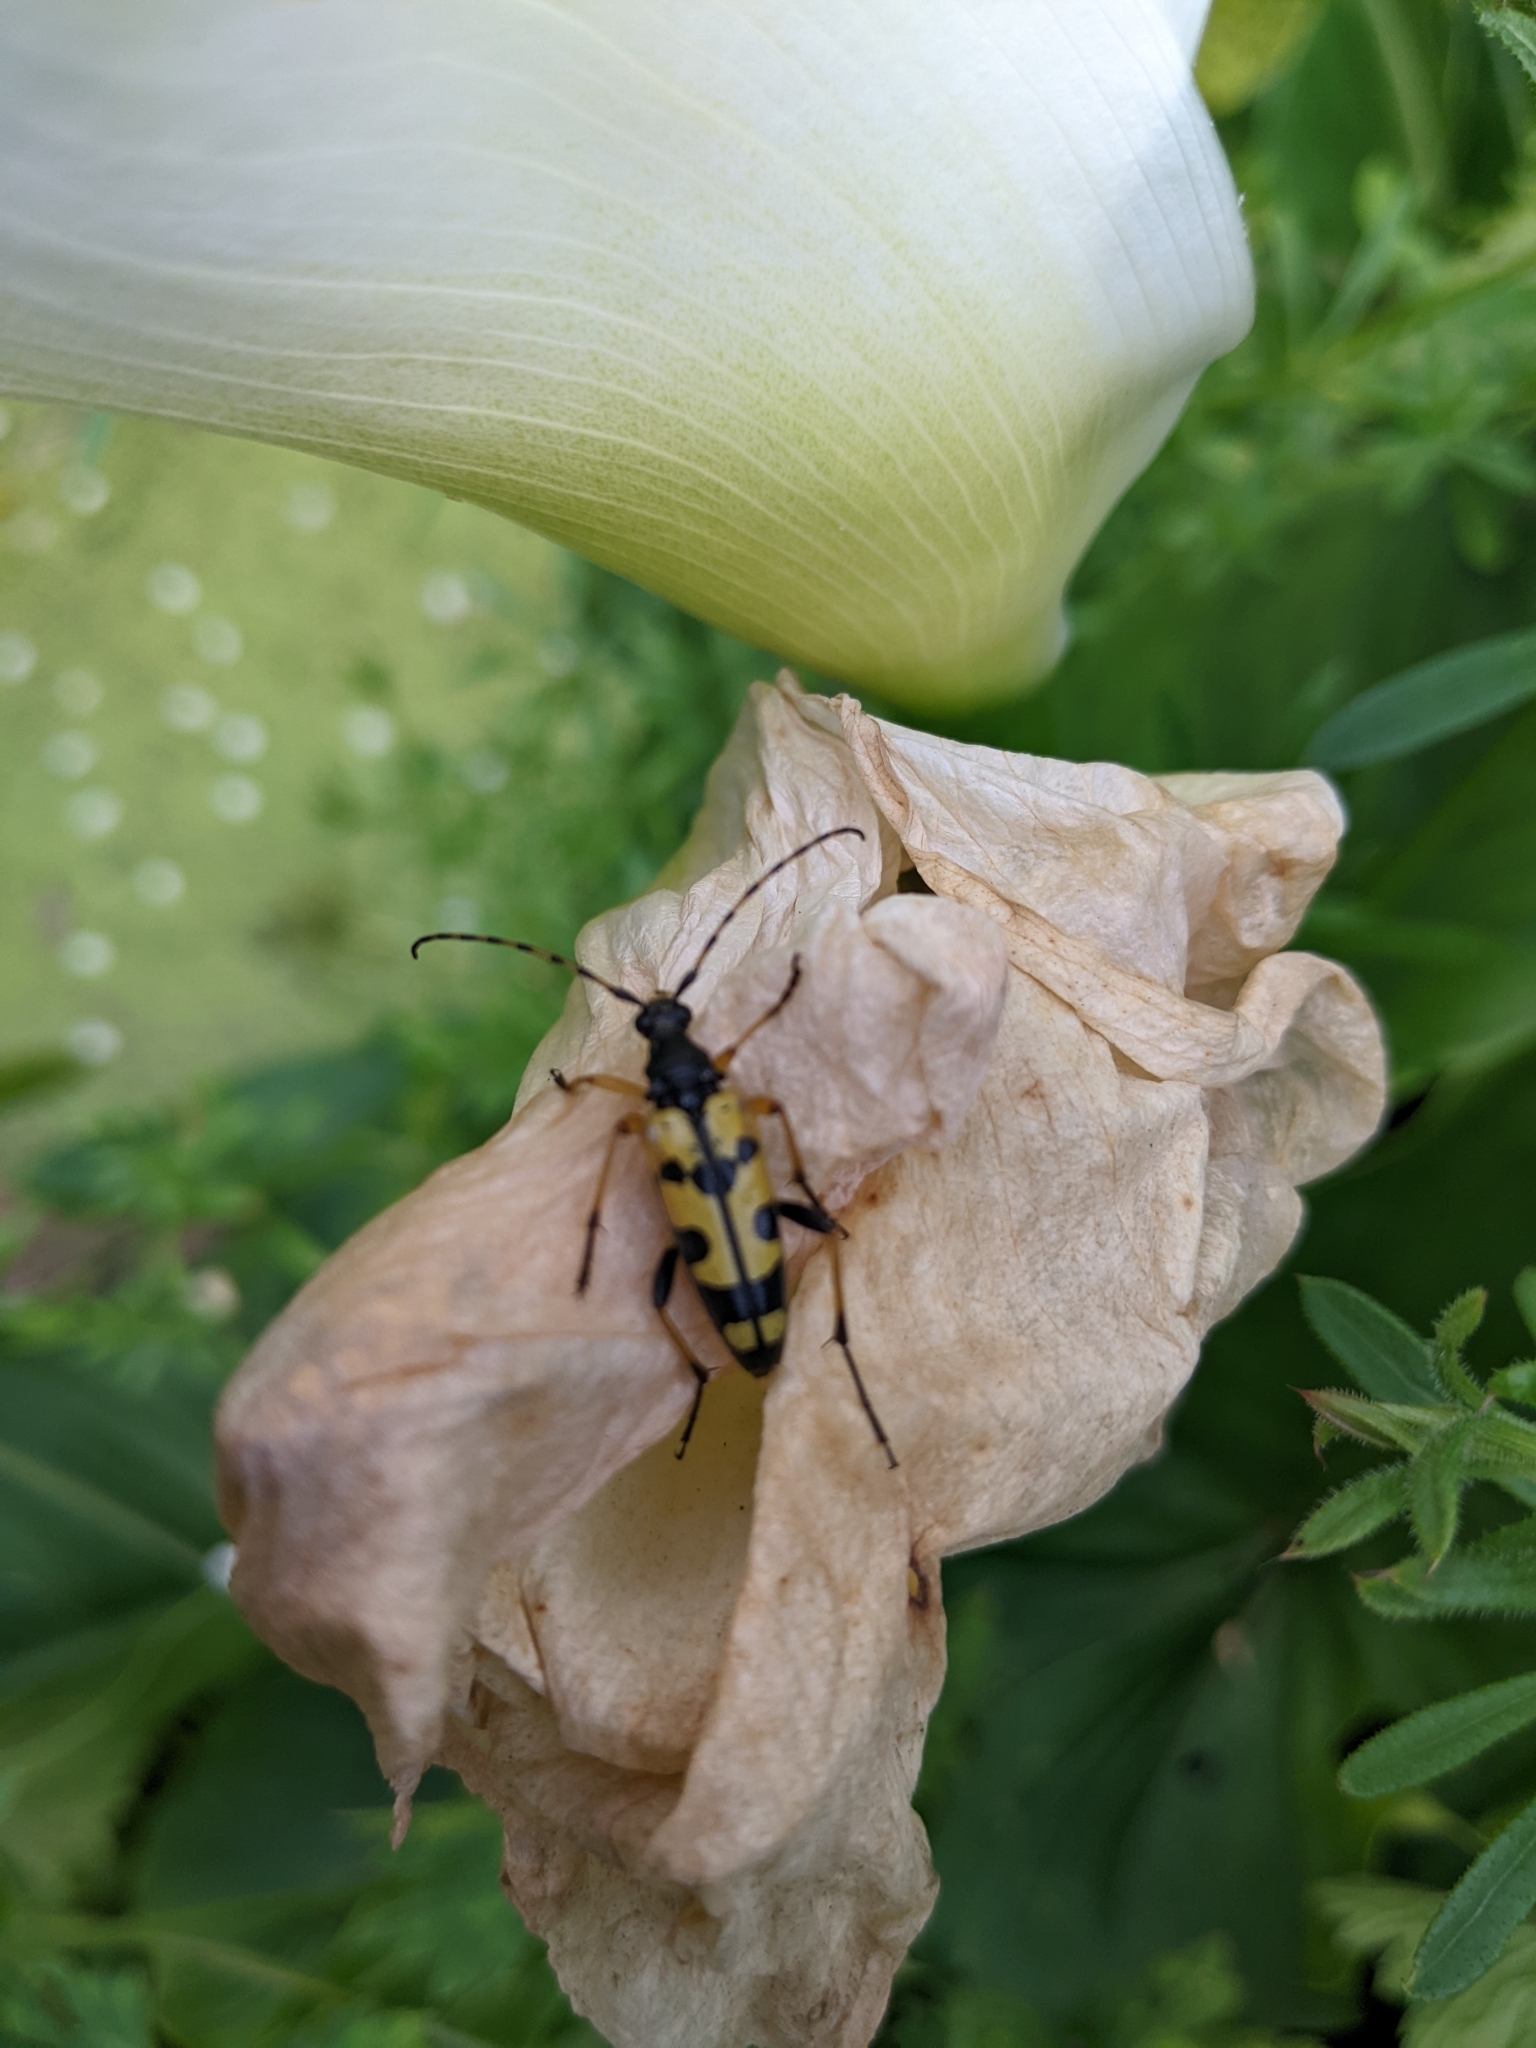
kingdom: Animalia
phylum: Arthropoda
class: Insecta
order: Coleoptera
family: Cerambycidae
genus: Rutpela
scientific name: Rutpela maculata
